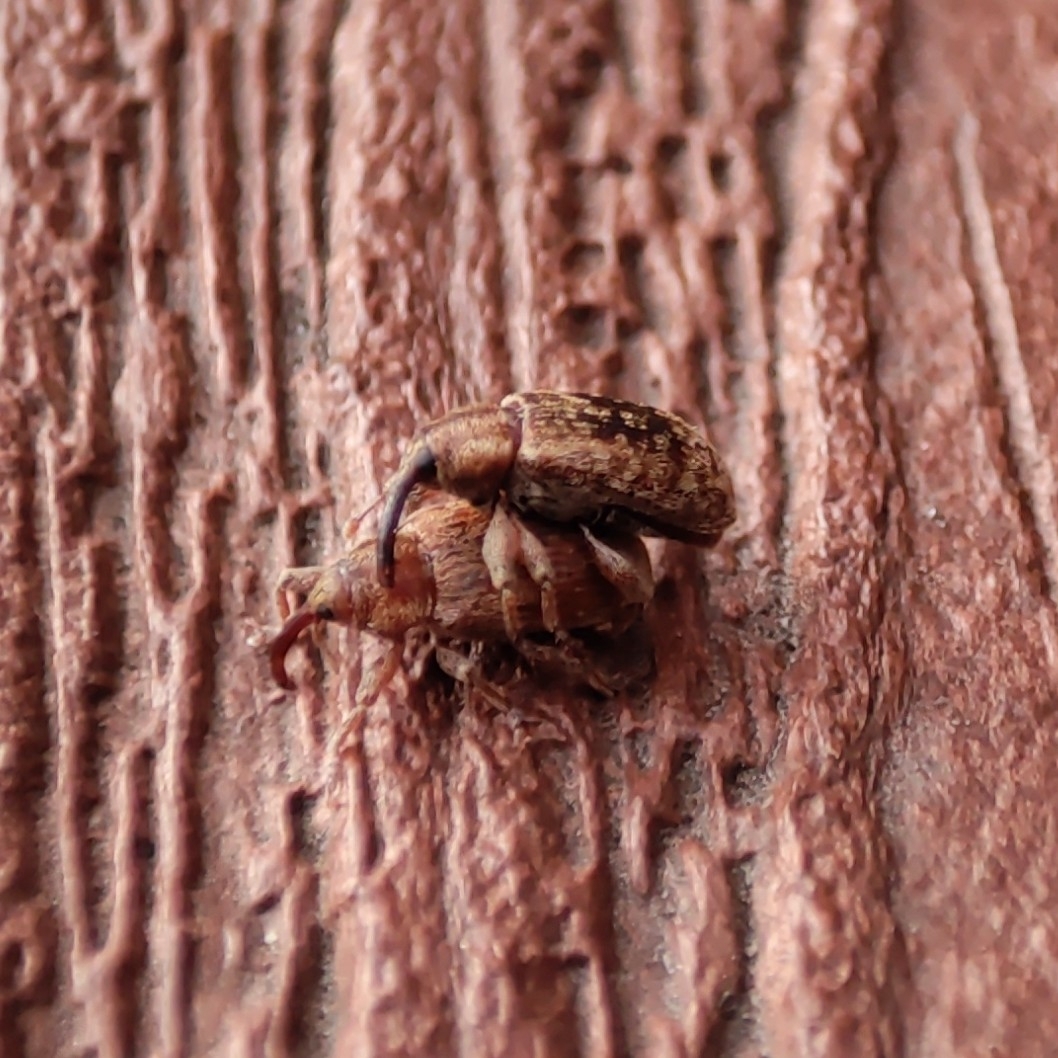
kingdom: Animalia
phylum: Arthropoda
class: Insecta
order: Coleoptera
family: Curculionidae
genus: Dorytomus
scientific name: Dorytomus melanophthalmus
